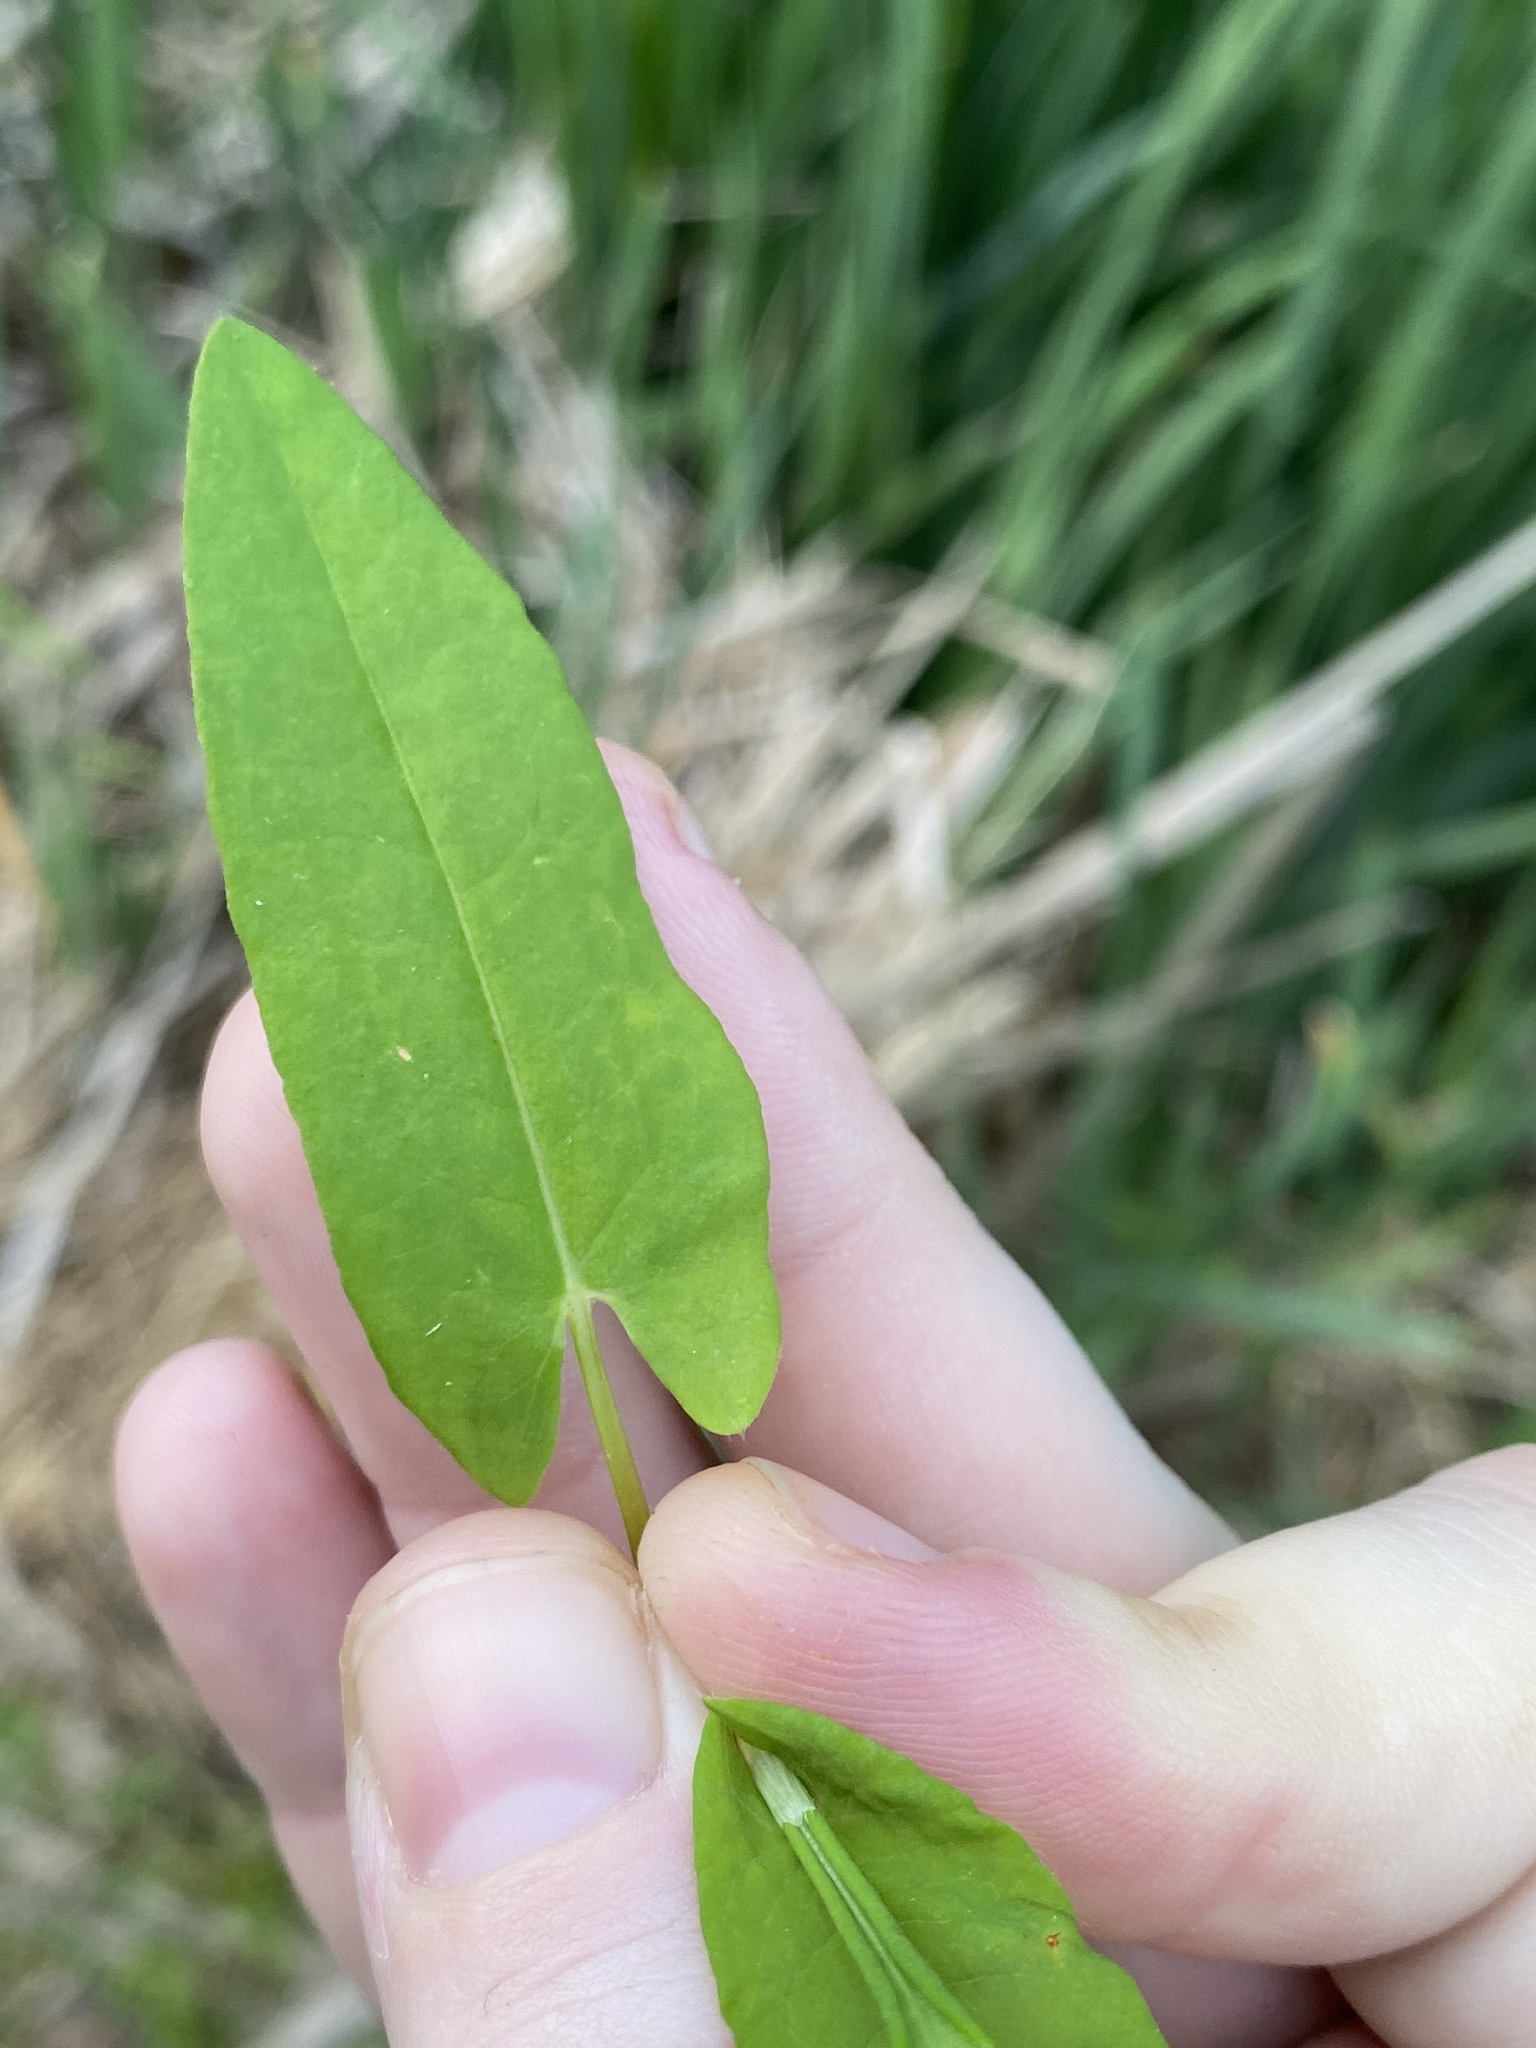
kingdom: Plantae
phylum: Tracheophyta
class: Magnoliopsida
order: Caryophyllales
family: Polygonaceae
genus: Persicaria
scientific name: Persicaria sagittata
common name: American tearthumb
